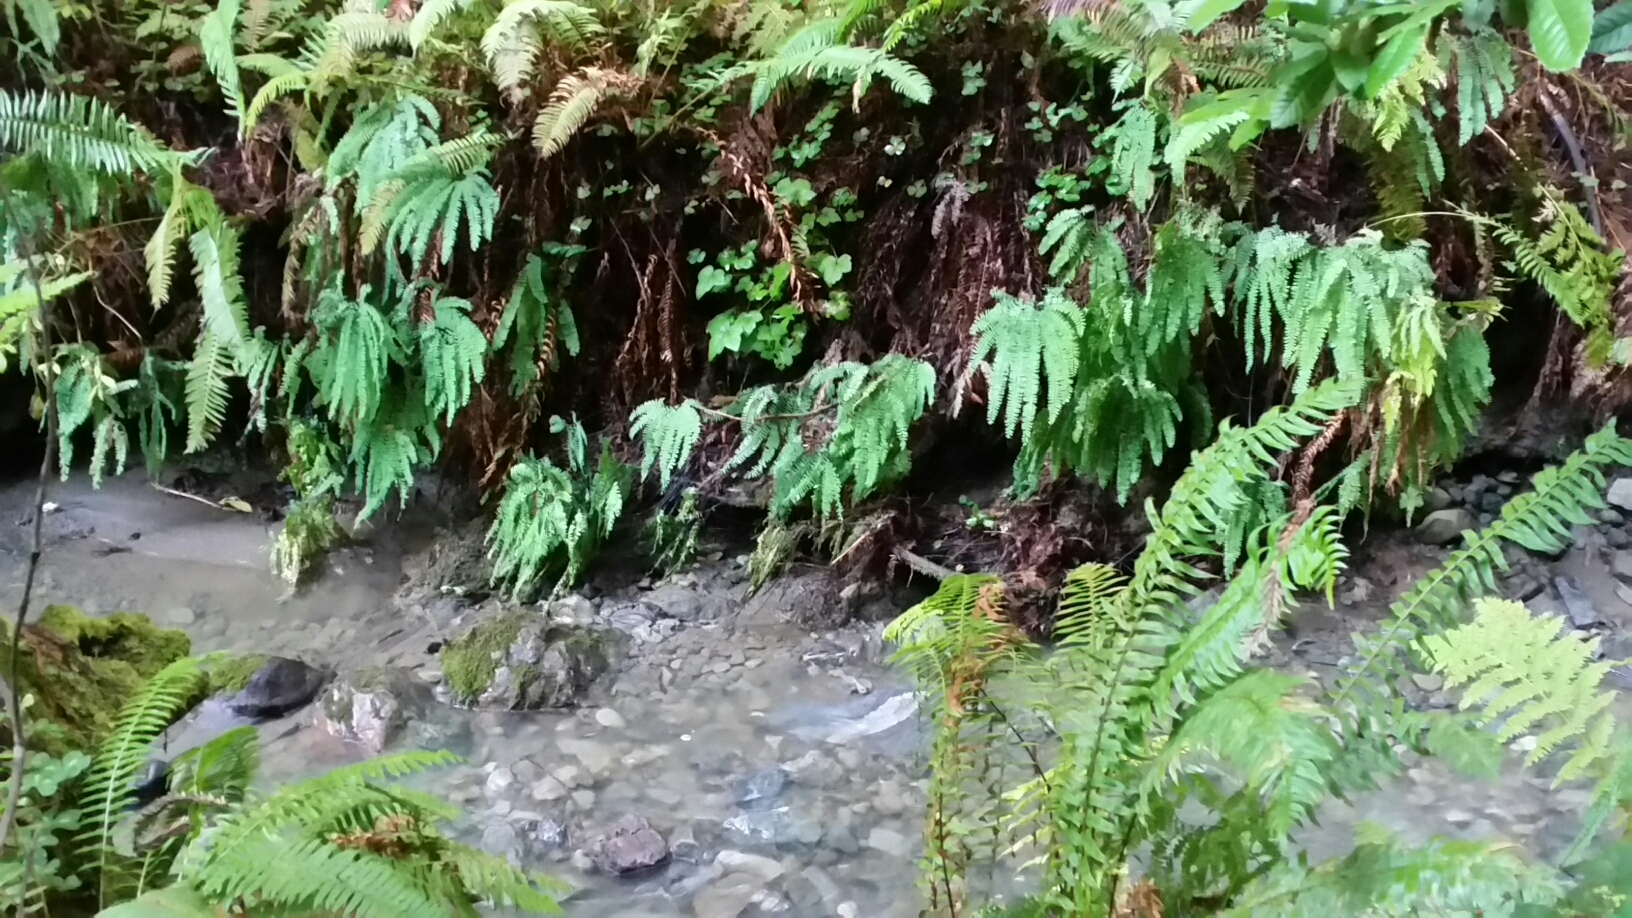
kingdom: Plantae
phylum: Tracheophyta
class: Polypodiopsida
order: Polypodiales
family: Pteridaceae
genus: Adiantum
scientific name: Adiantum aleuticum
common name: Aleutian maidenhair fern
